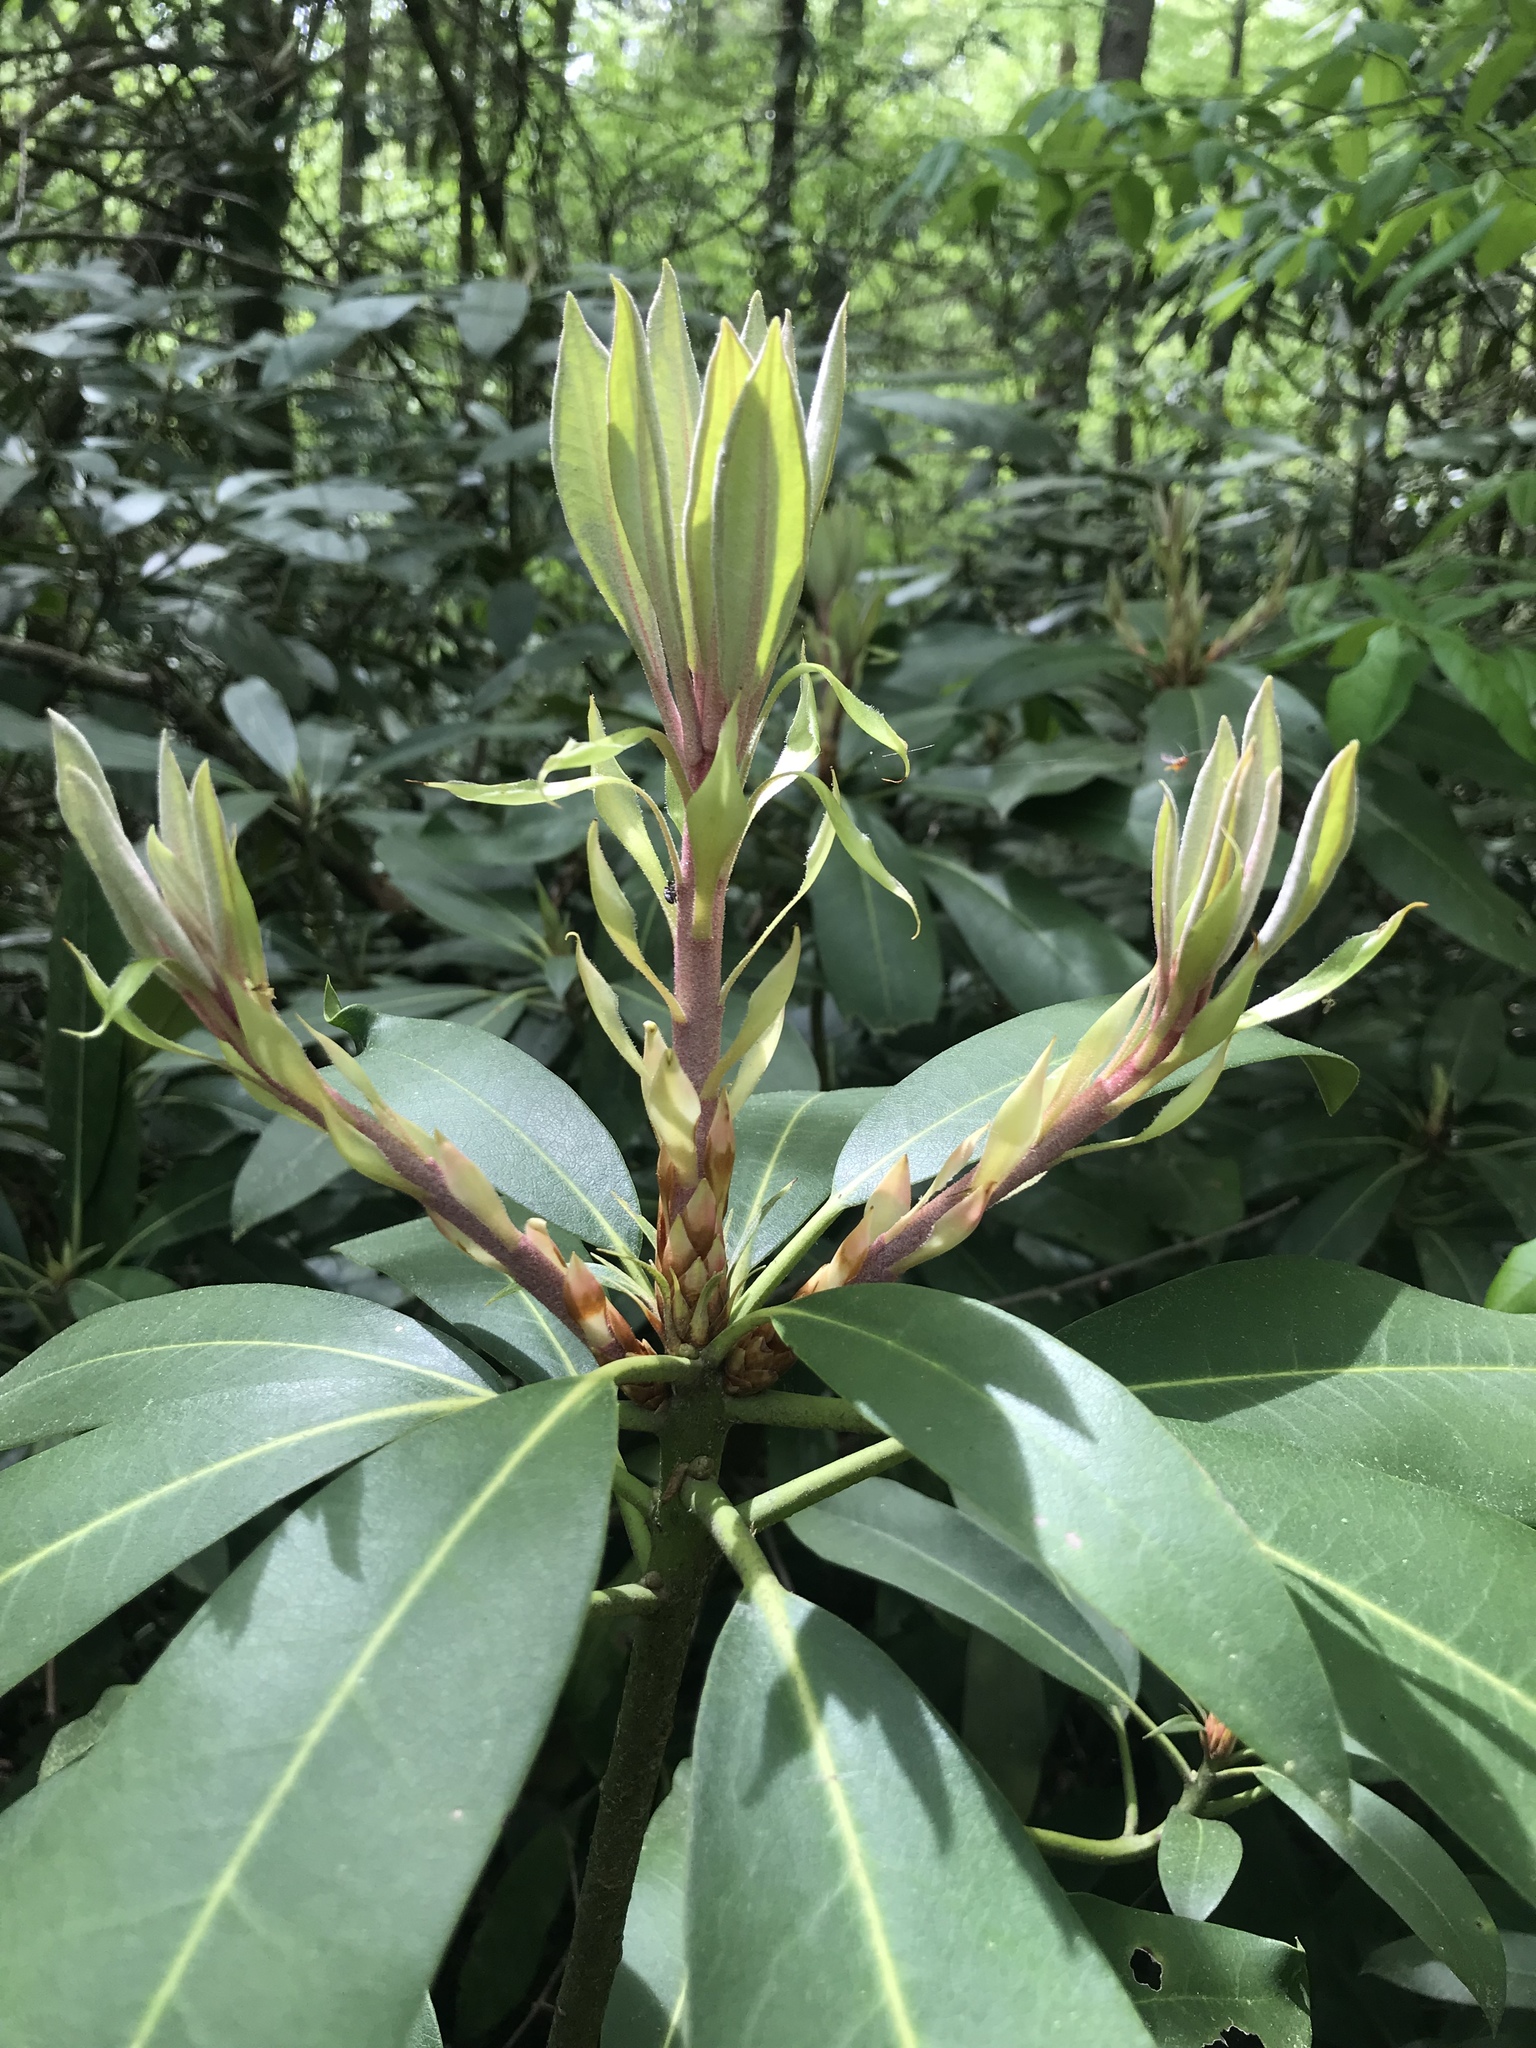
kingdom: Plantae
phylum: Tracheophyta
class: Magnoliopsida
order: Ericales
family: Ericaceae
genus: Rhododendron
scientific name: Rhododendron maximum
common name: Great rhododendron
